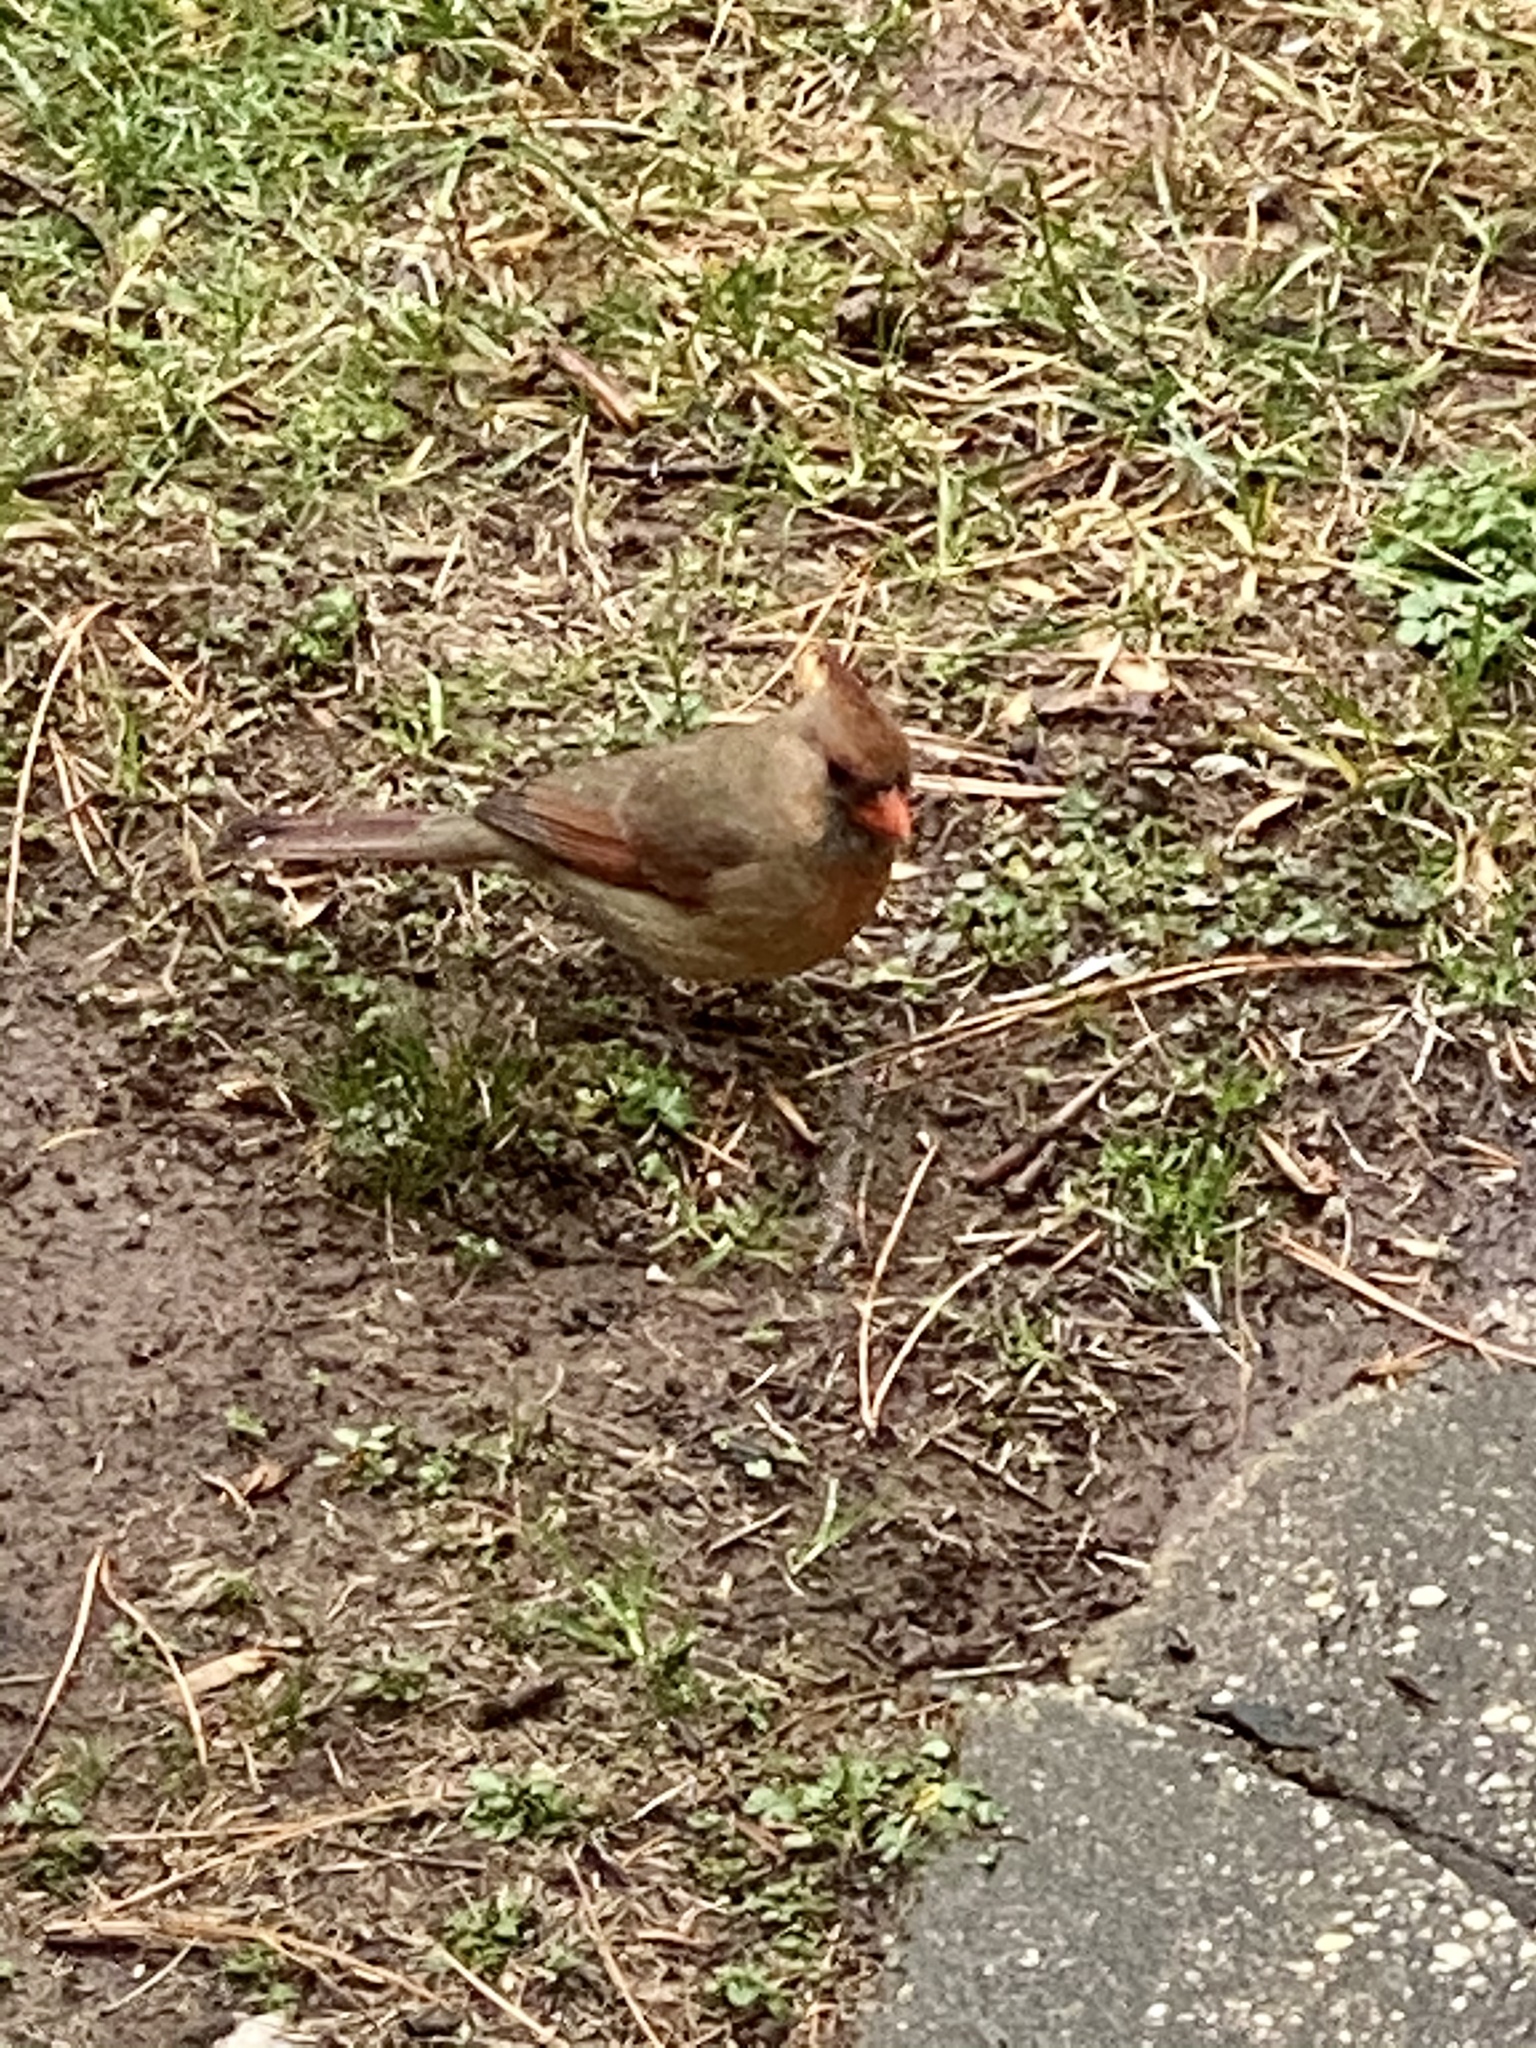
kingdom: Animalia
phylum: Chordata
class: Aves
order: Passeriformes
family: Cardinalidae
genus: Cardinalis
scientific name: Cardinalis cardinalis
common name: Northern cardinal
